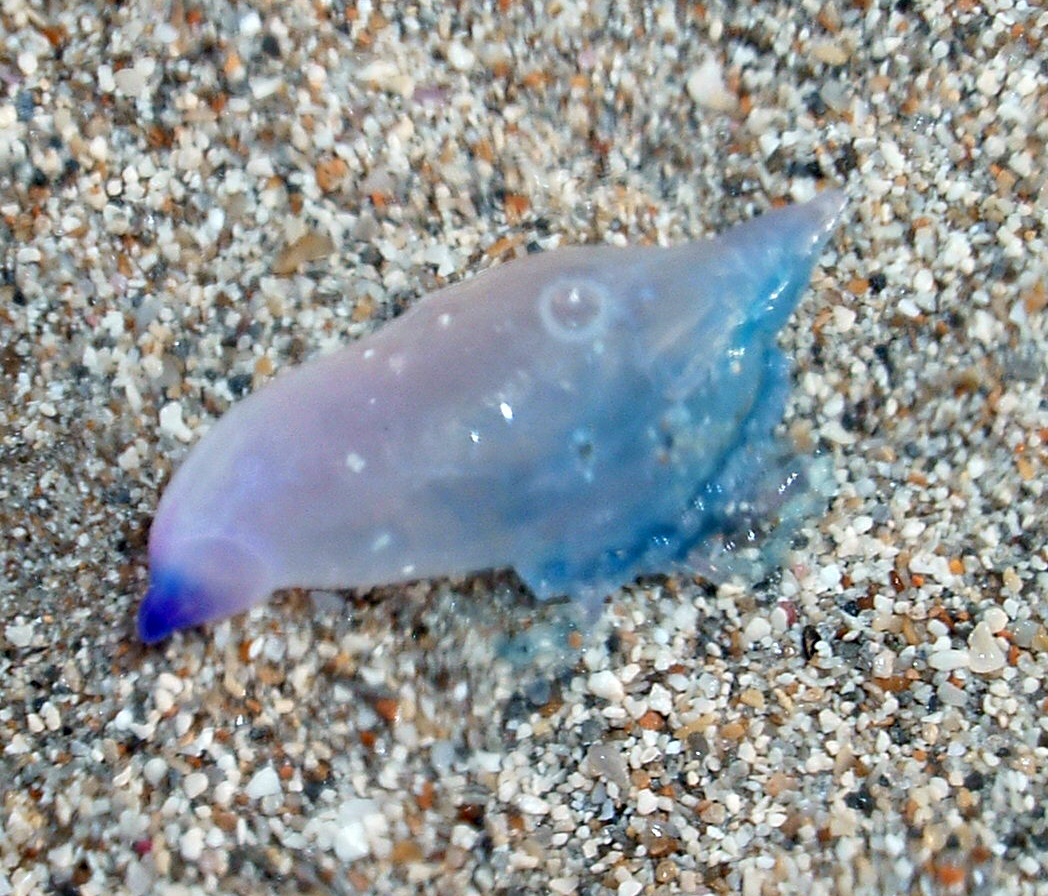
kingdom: Animalia
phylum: Cnidaria
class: Hydrozoa
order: Siphonophorae
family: Physaliidae
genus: Physalia
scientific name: Physalia physalis
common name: Portuguese man-of-war
